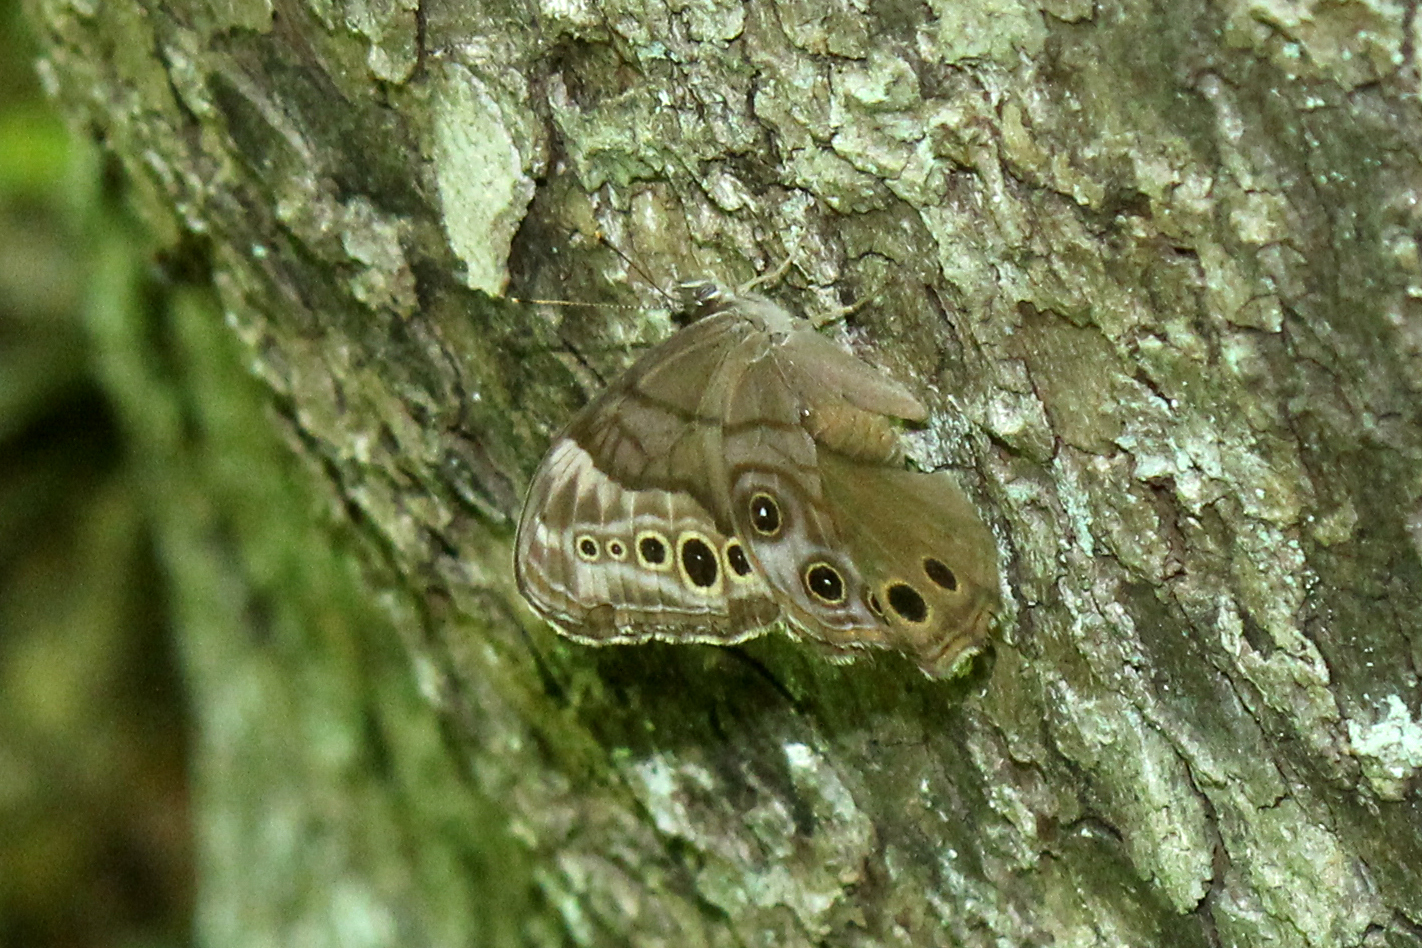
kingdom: Animalia
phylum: Arthropoda
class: Insecta
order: Lepidoptera
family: Nymphalidae
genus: Lethe
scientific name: Lethe anthedon
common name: Northern pearly-eye
